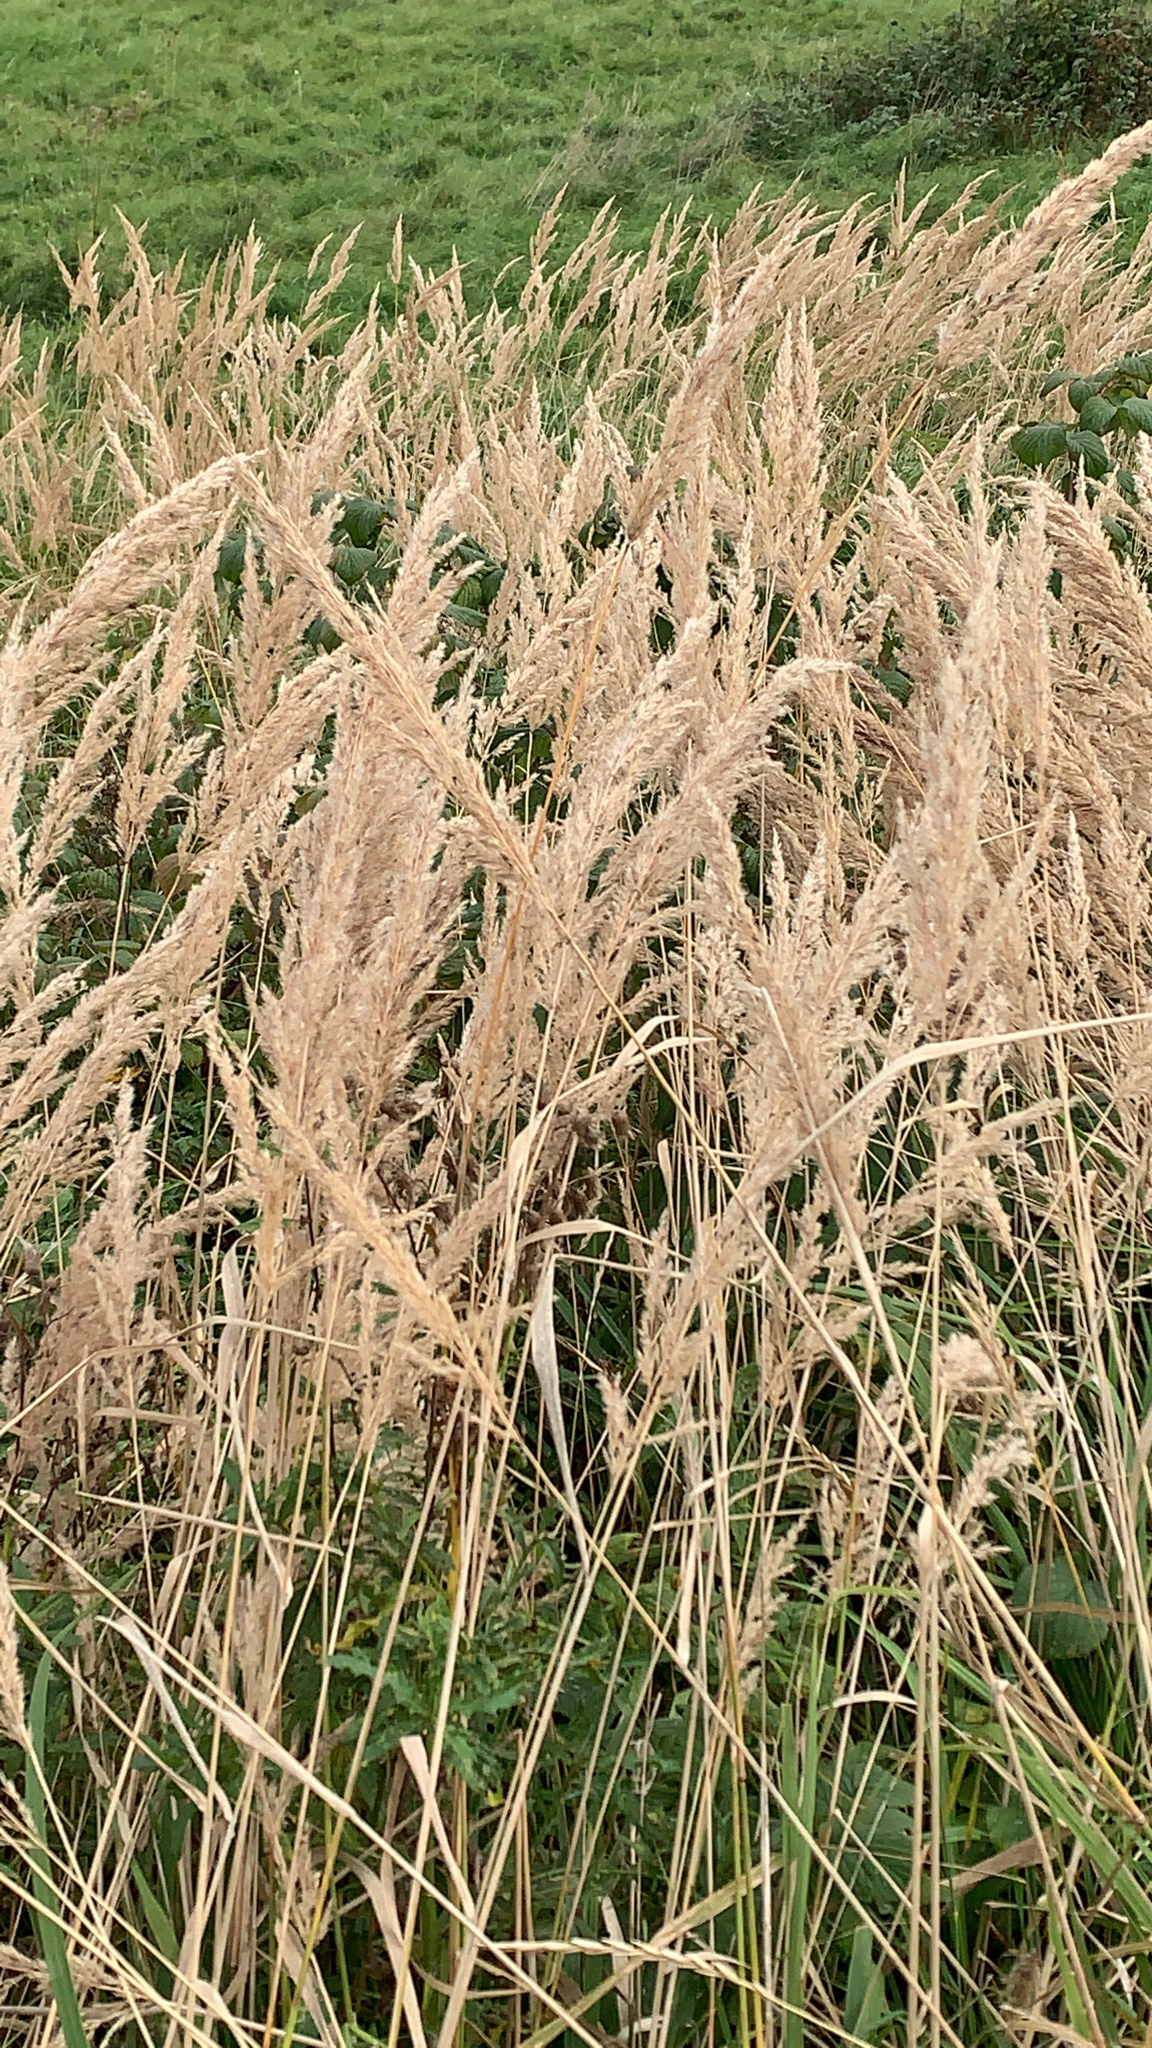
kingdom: Plantae
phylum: Tracheophyta
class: Liliopsida
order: Poales
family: Poaceae
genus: Calamagrostis
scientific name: Calamagrostis epigejos
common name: Wood small-reed
